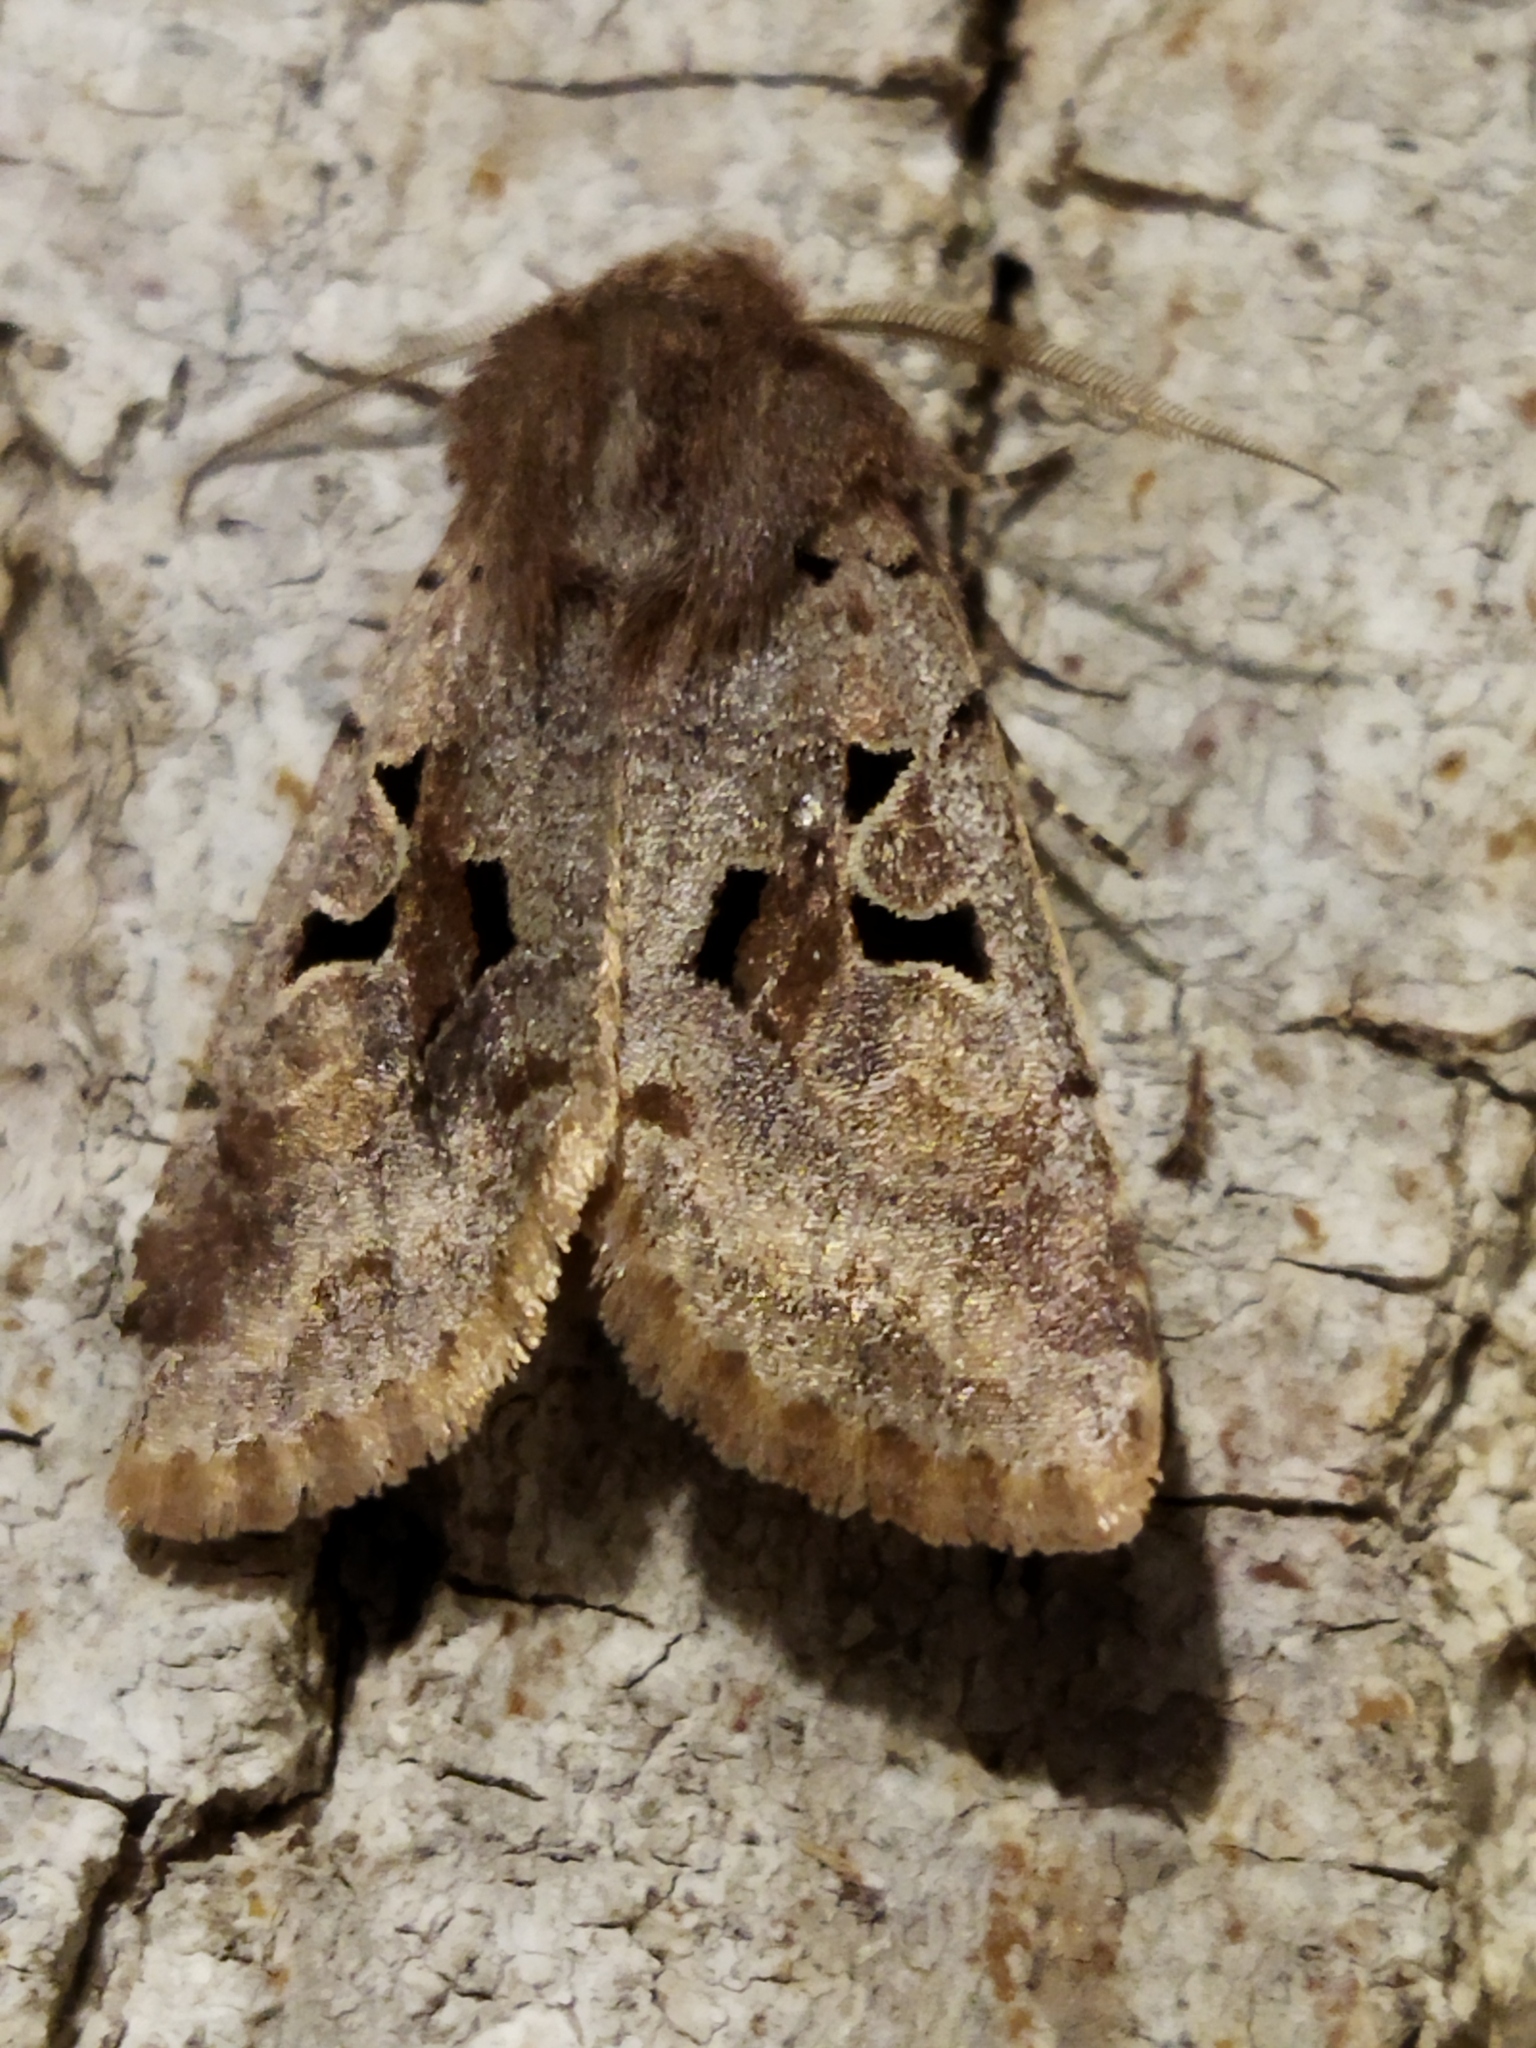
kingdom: Animalia
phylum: Arthropoda
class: Insecta
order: Lepidoptera
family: Noctuidae
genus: Orthosia
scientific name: Orthosia gothica
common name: Hebrew character
